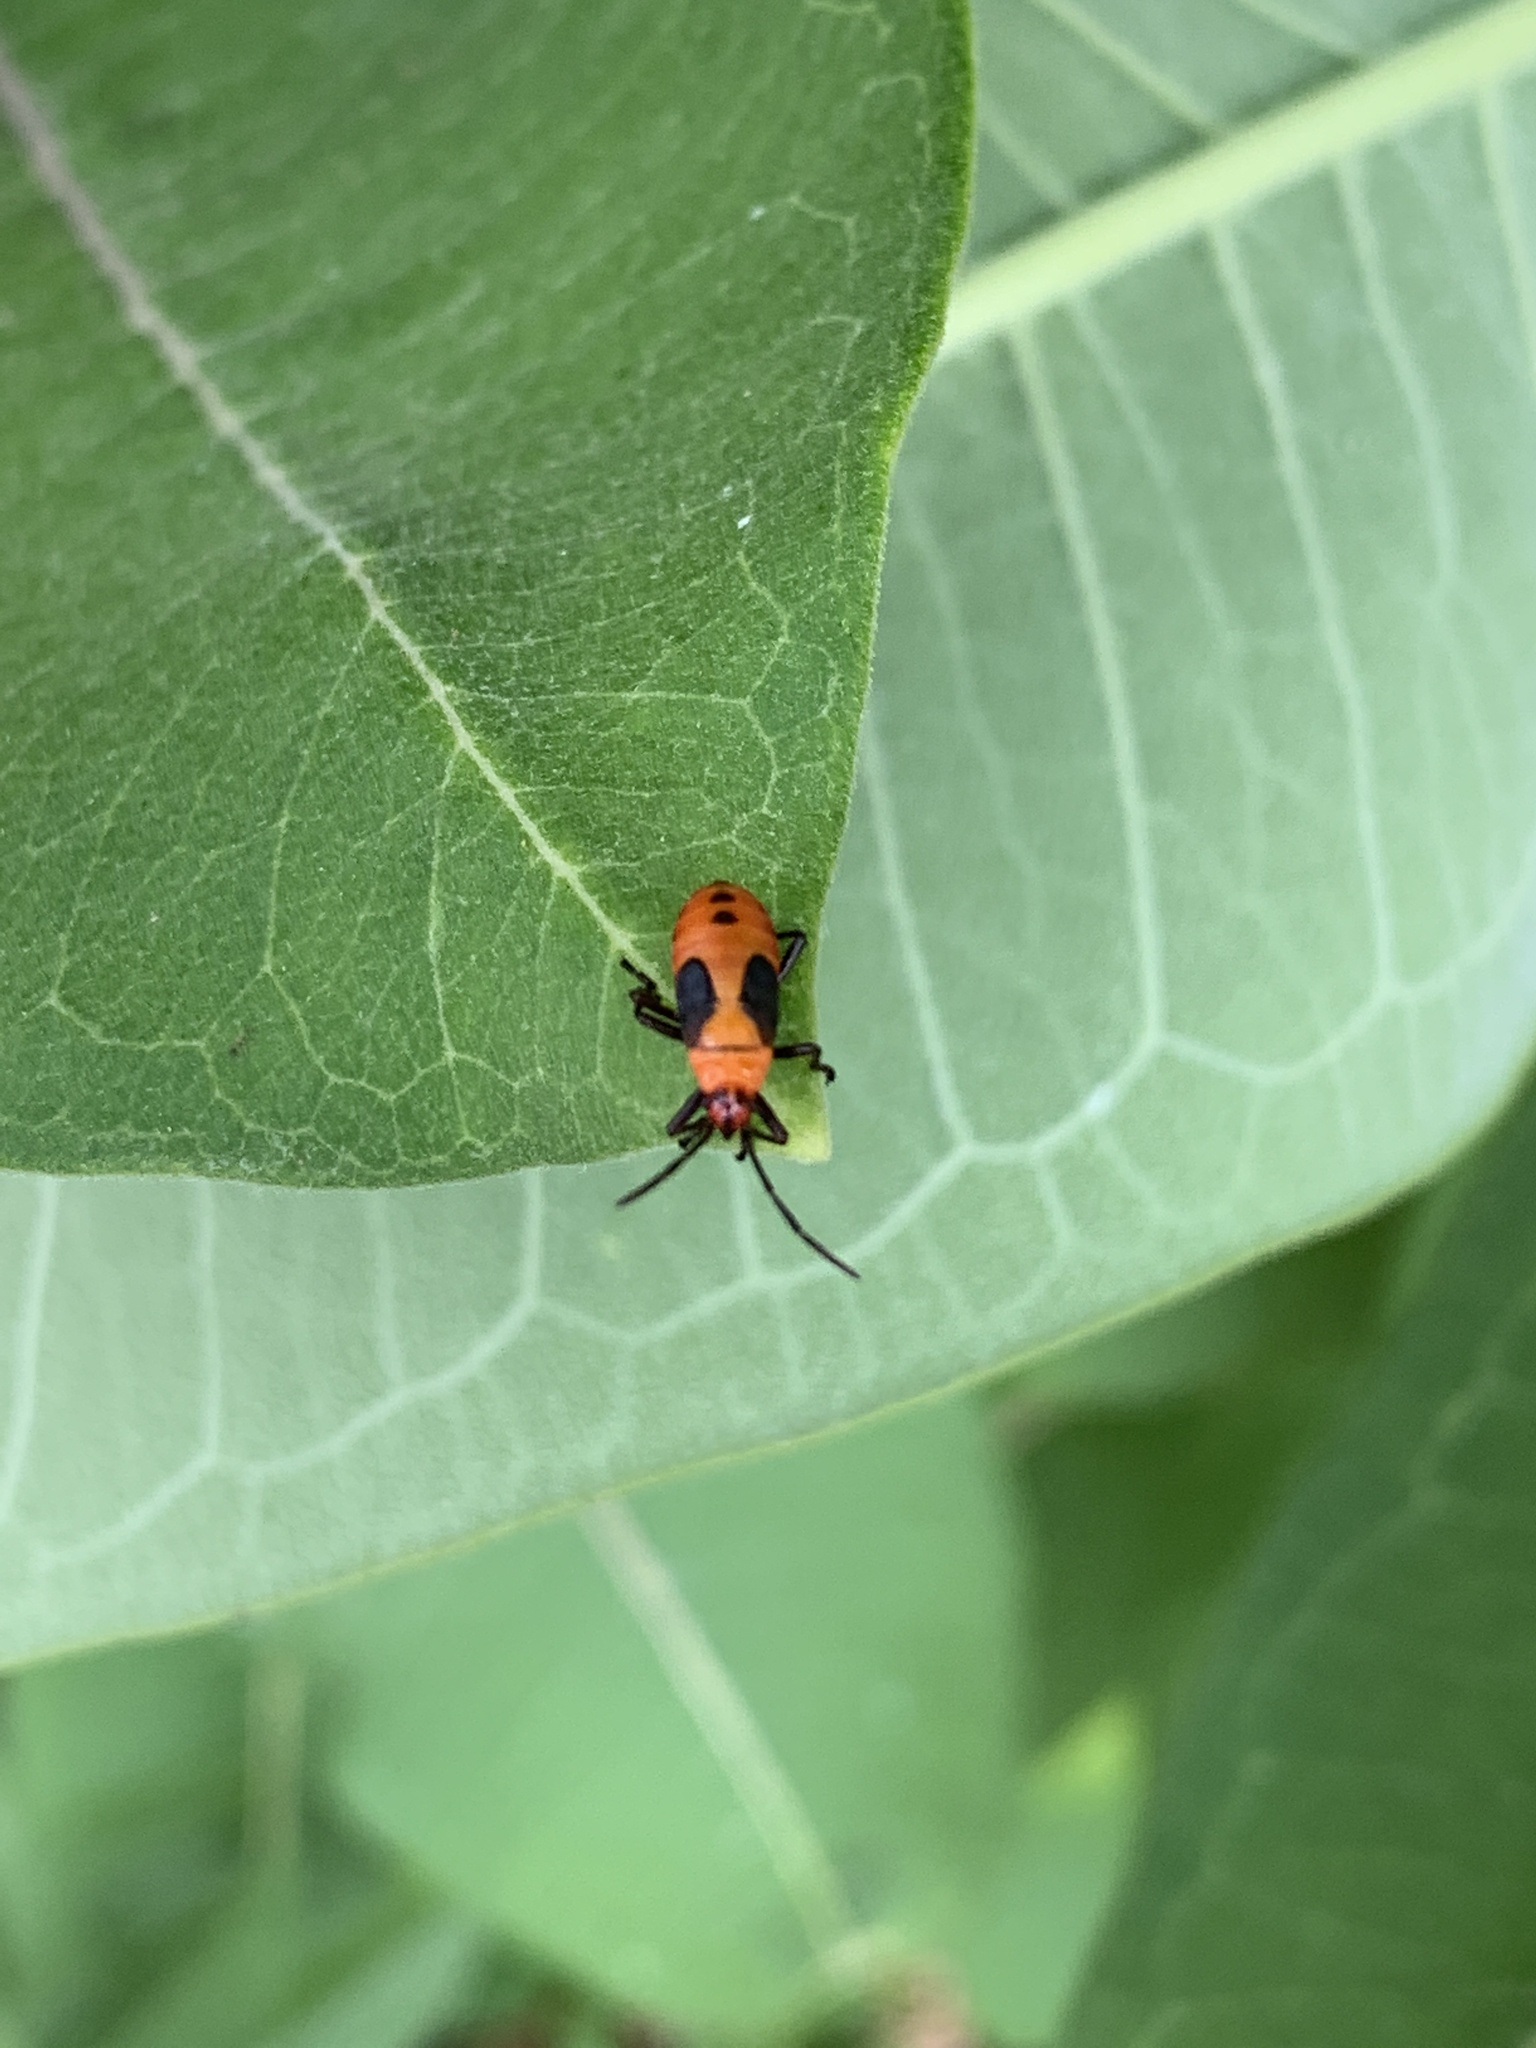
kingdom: Animalia
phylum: Arthropoda
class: Insecta
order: Hemiptera
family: Lygaeidae
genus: Oncopeltus
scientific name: Oncopeltus fasciatus
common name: Large milkweed bug
